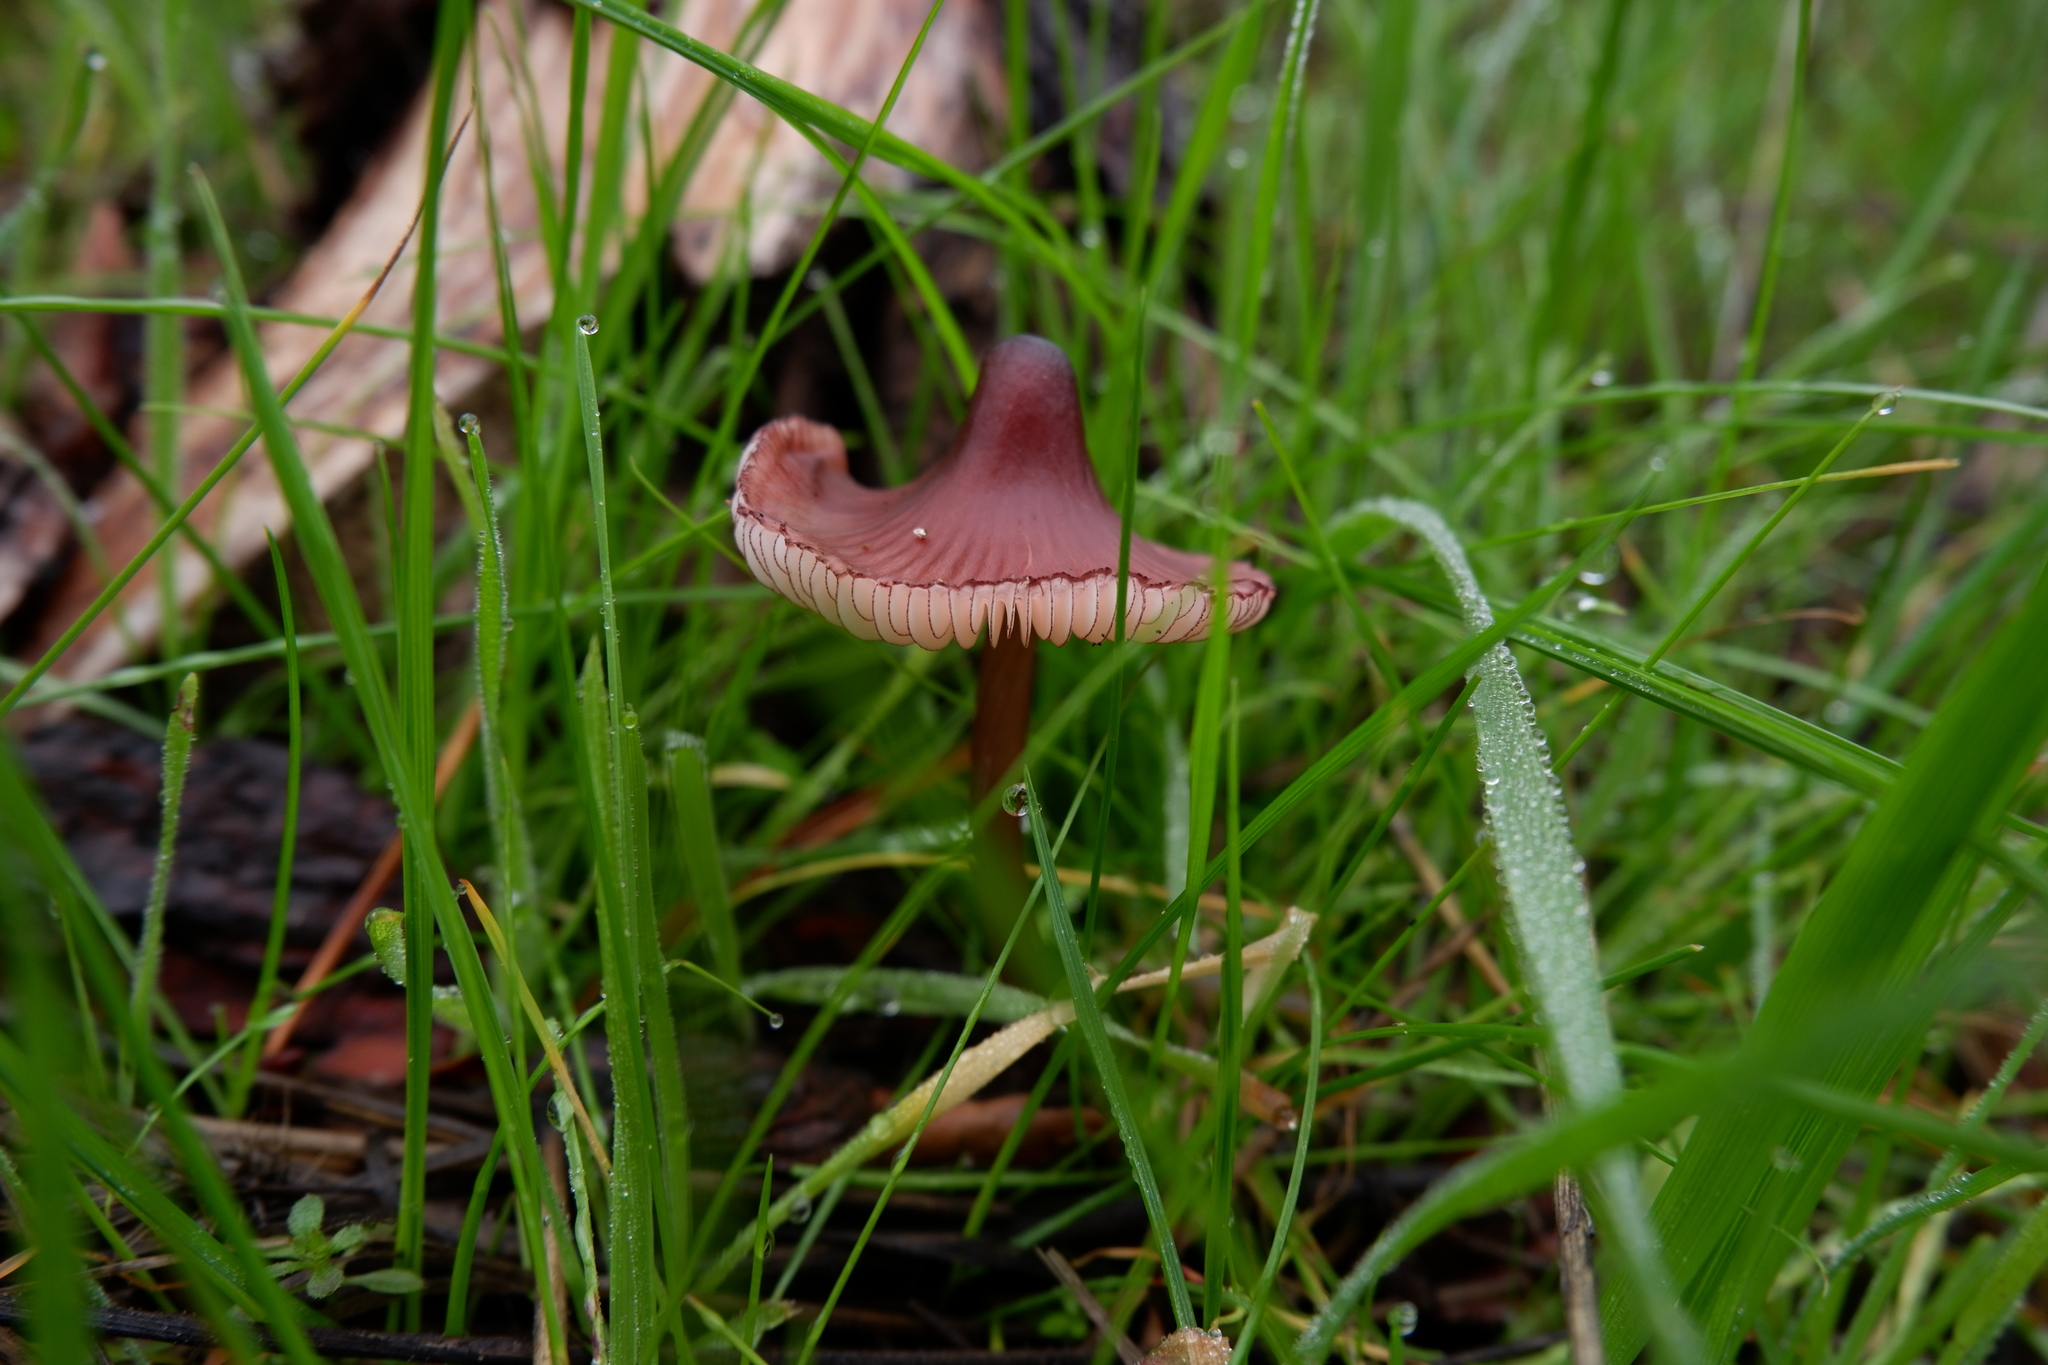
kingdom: Fungi
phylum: Basidiomycota
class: Agaricomycetes
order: Agaricales
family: Mycenaceae
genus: Mycena
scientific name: Mycena purpureofusca
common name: Purple edge bonnet
